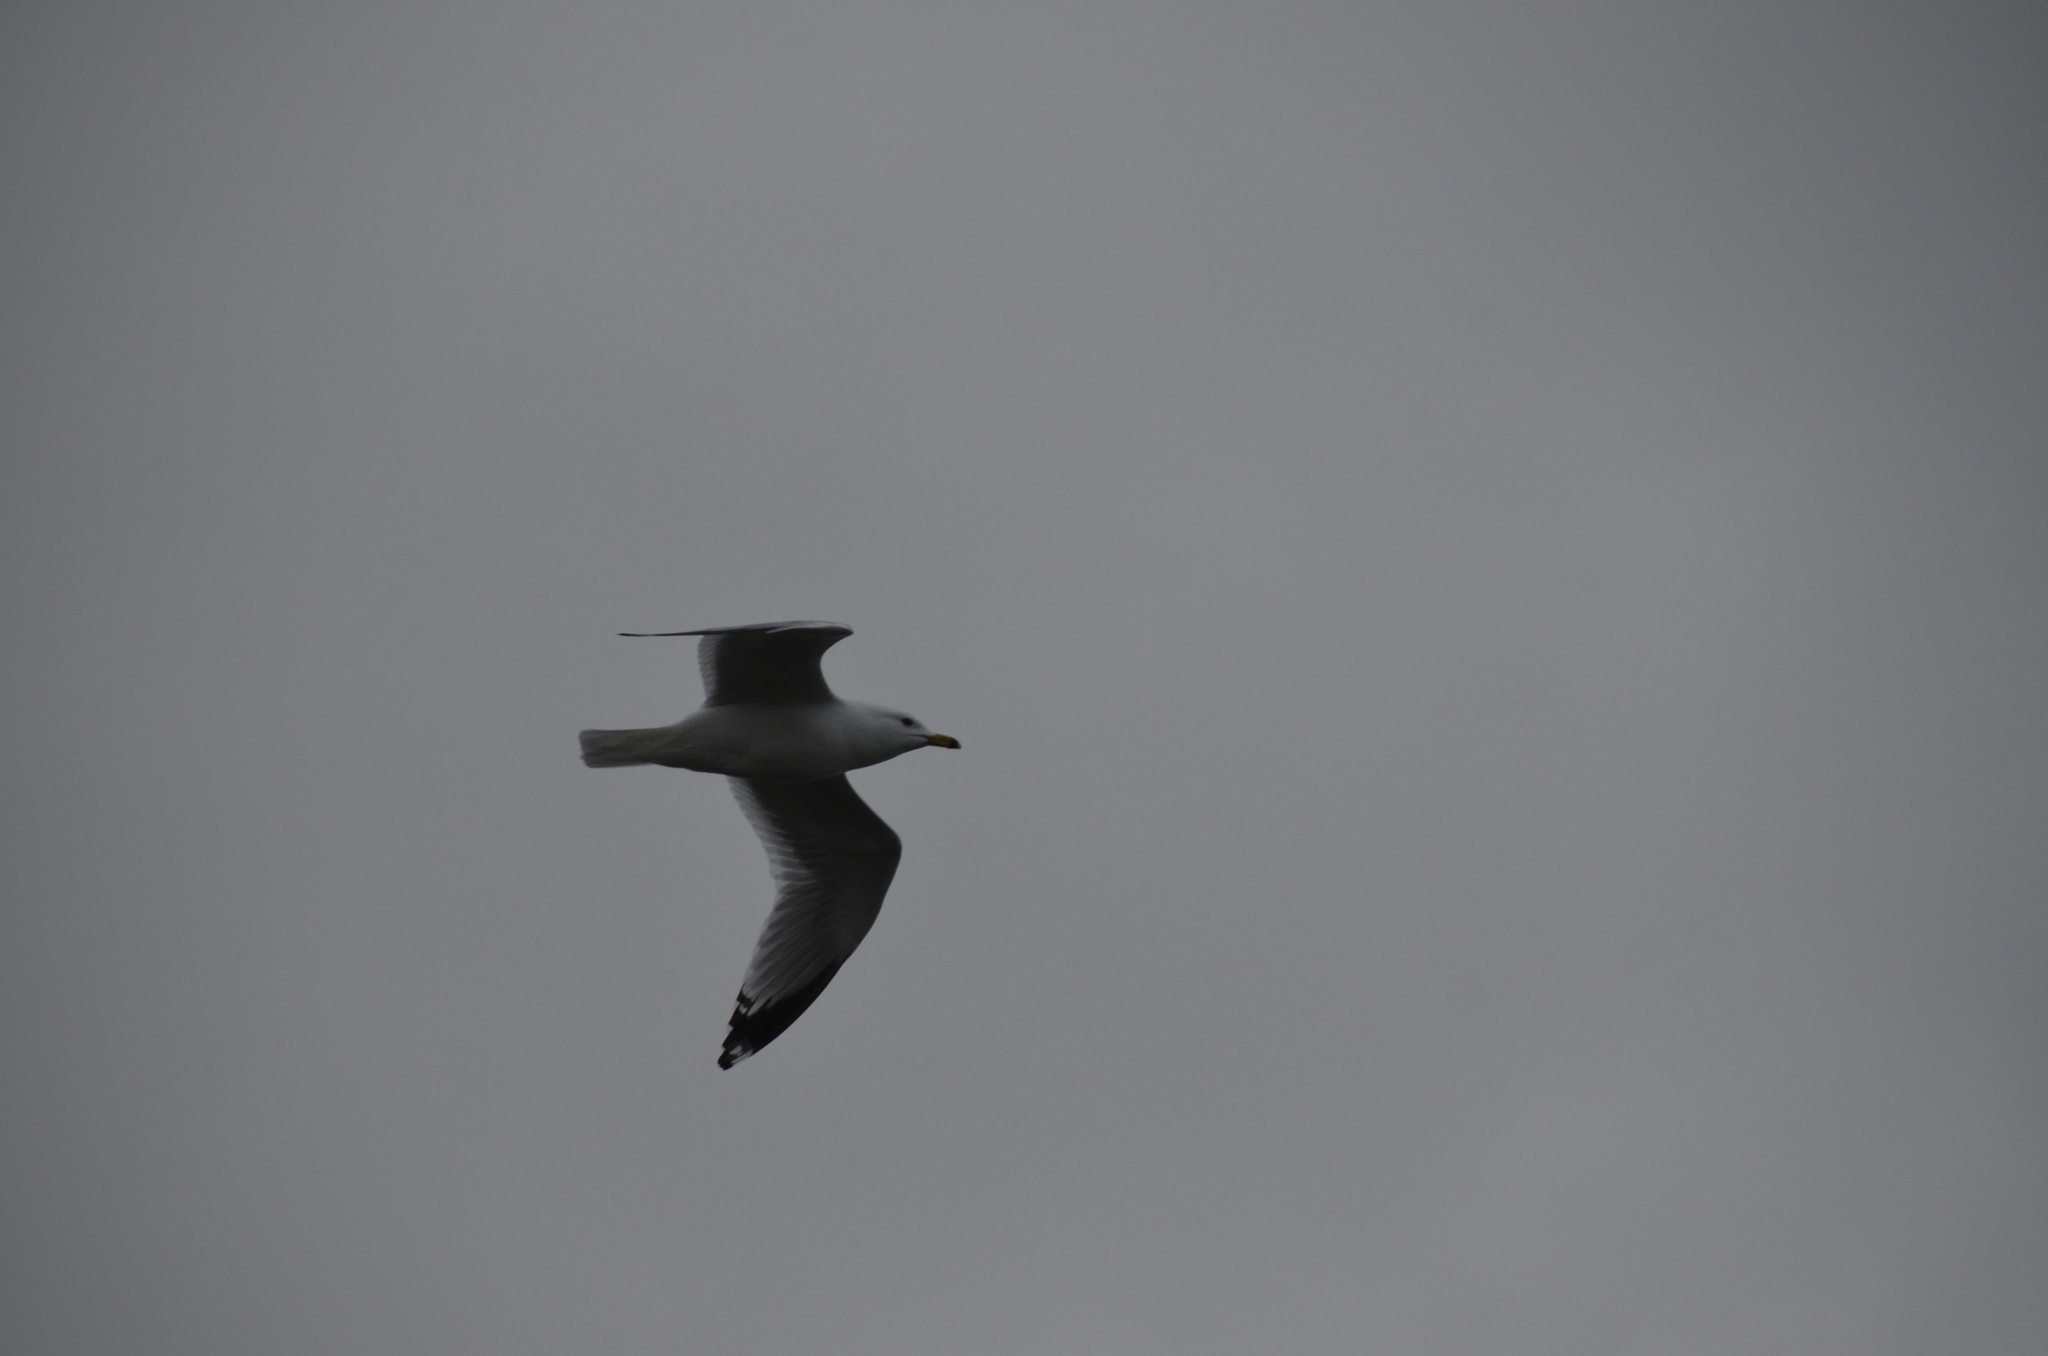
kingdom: Animalia
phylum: Chordata
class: Aves
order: Charadriiformes
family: Laridae
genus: Larus
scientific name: Larus delawarensis
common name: Ring-billed gull
